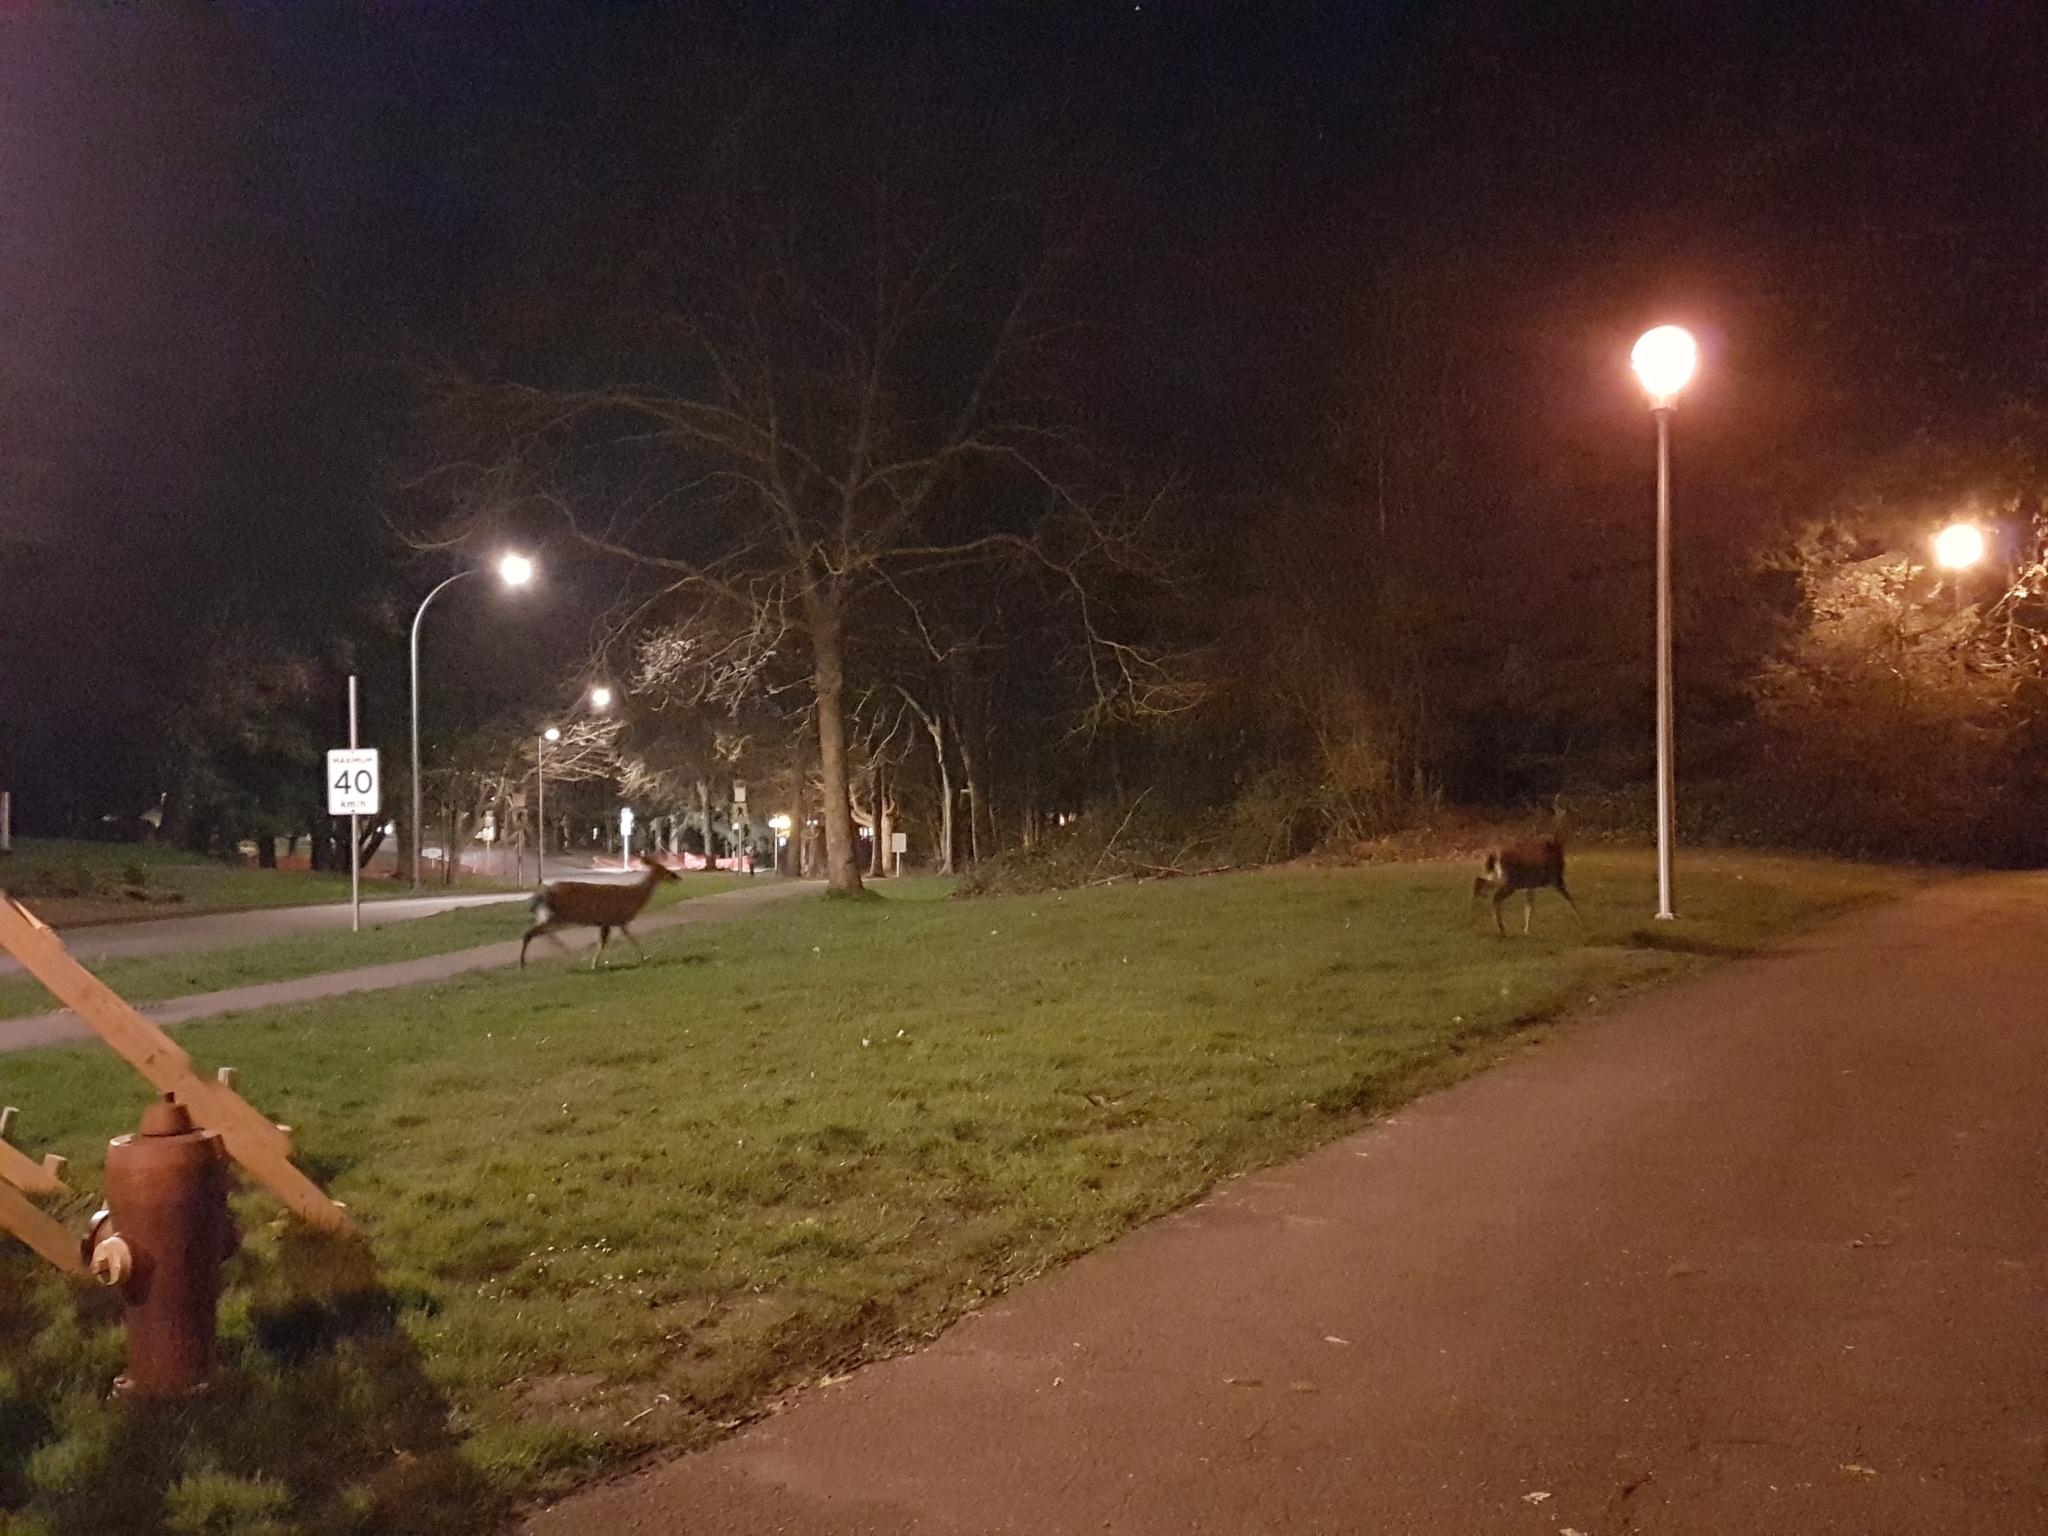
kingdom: Animalia
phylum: Chordata
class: Mammalia
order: Artiodactyla
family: Cervidae
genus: Odocoileus
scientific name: Odocoileus hemionus
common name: Mule deer
